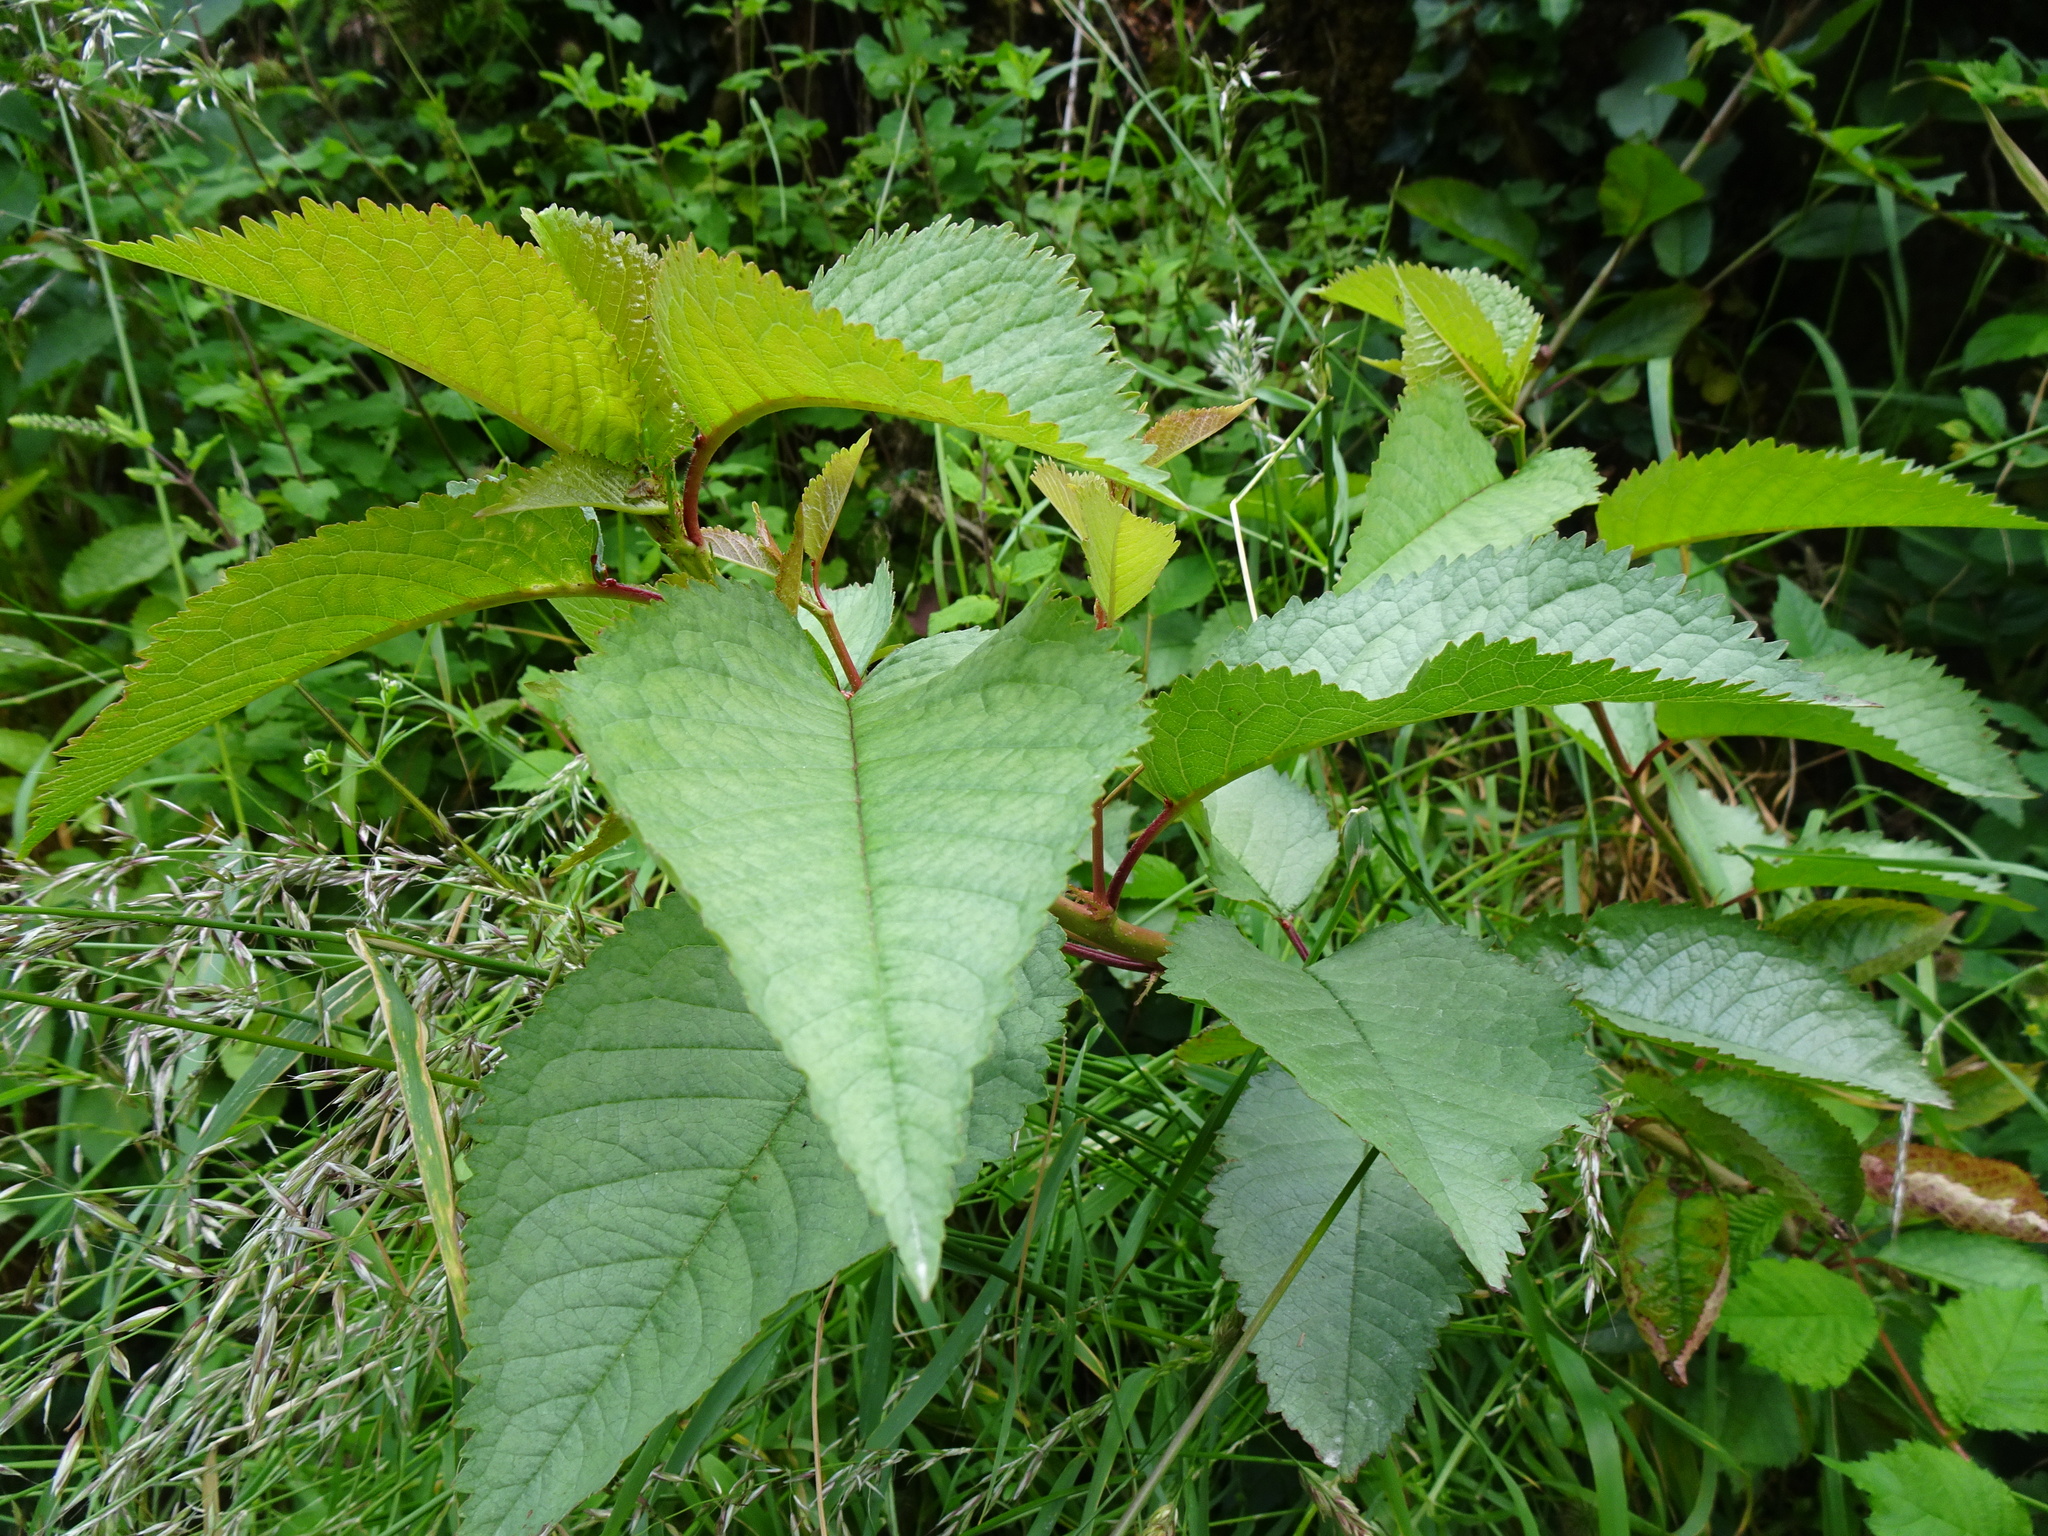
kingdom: Plantae
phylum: Tracheophyta
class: Magnoliopsida
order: Rosales
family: Rosaceae
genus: Prunus
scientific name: Prunus avium
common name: Sweet cherry
